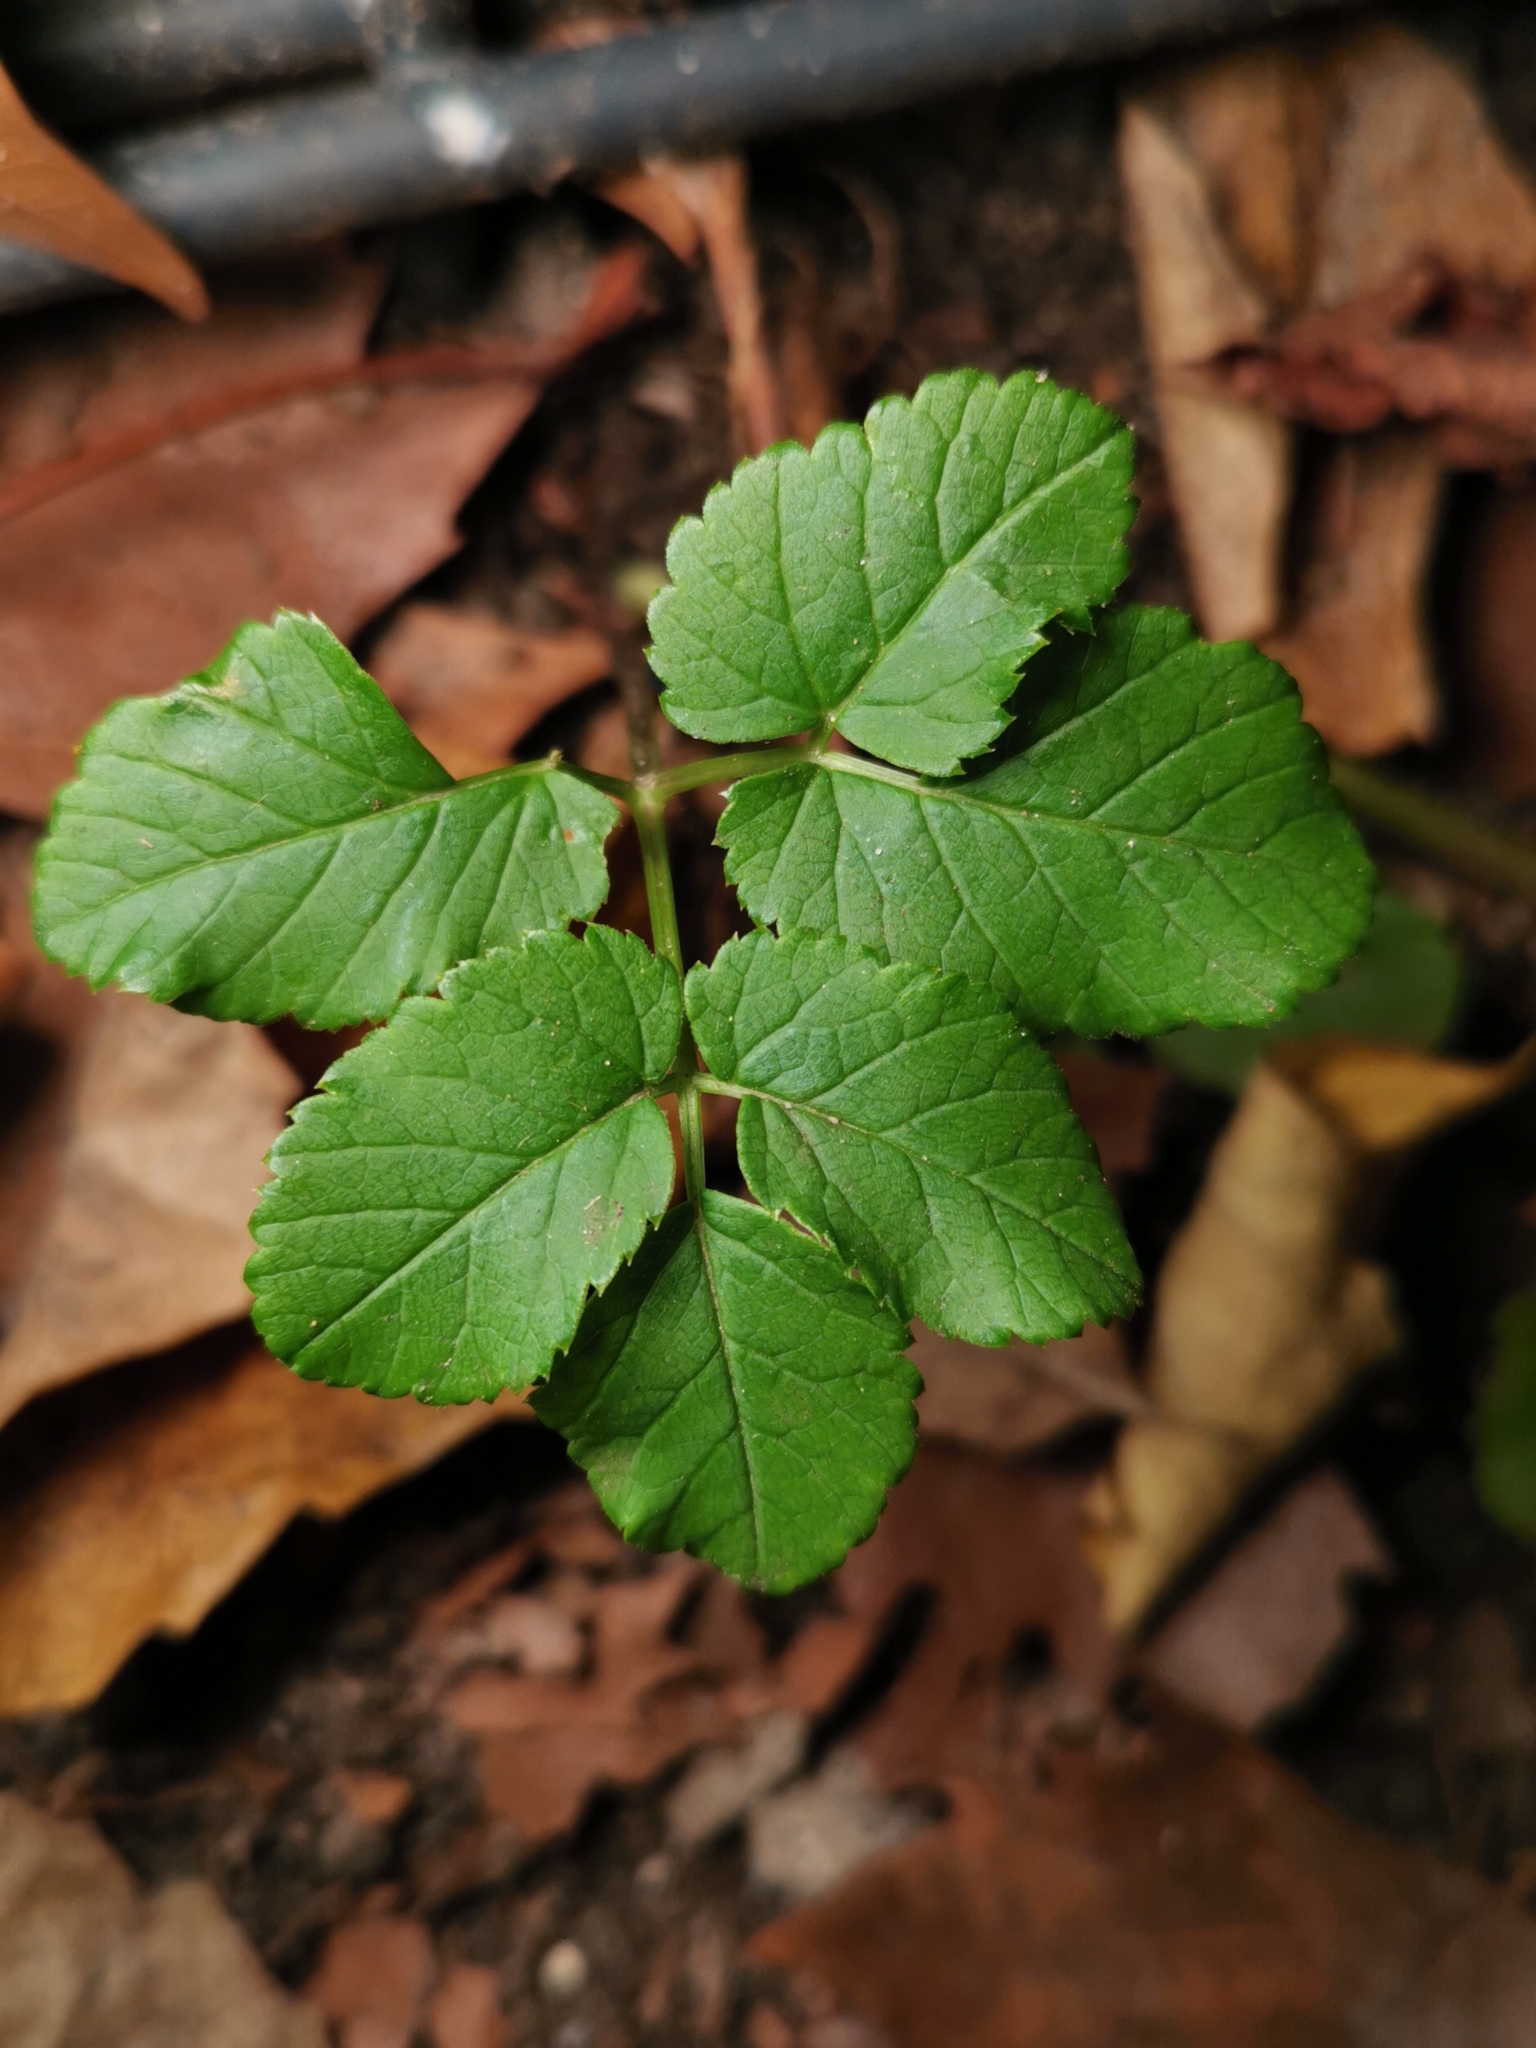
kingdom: Plantae
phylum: Tracheophyta
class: Magnoliopsida
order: Apiales
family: Apiaceae
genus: Aegopodium
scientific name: Aegopodium podagraria
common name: Ground-elder
